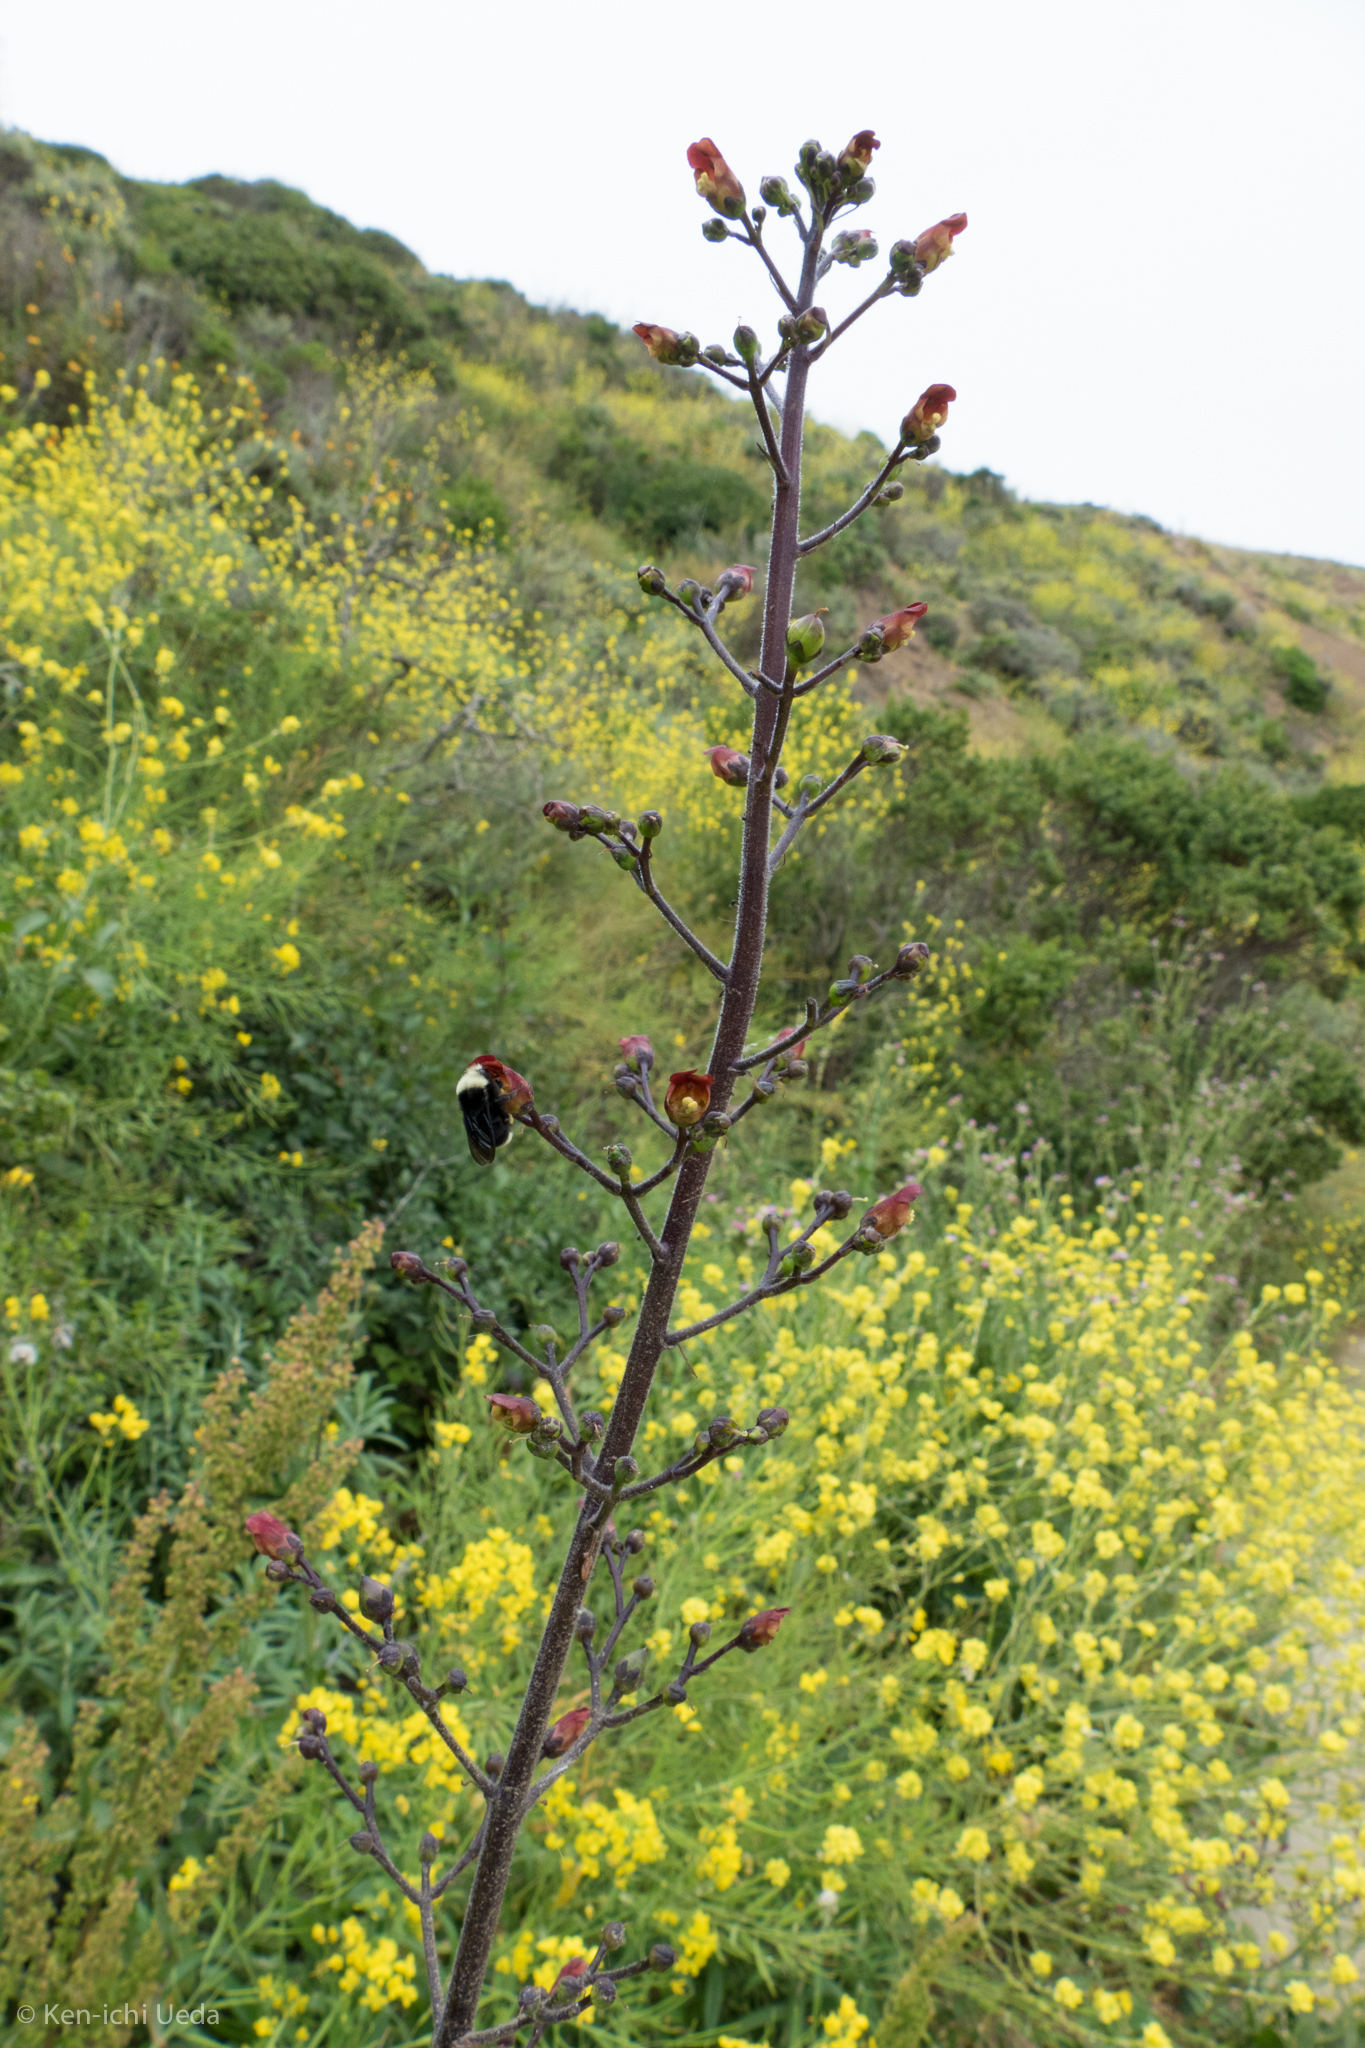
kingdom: Plantae
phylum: Tracheophyta
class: Magnoliopsida
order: Lamiales
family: Scrophulariaceae
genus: Scrophularia
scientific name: Scrophularia californica
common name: California figwort
